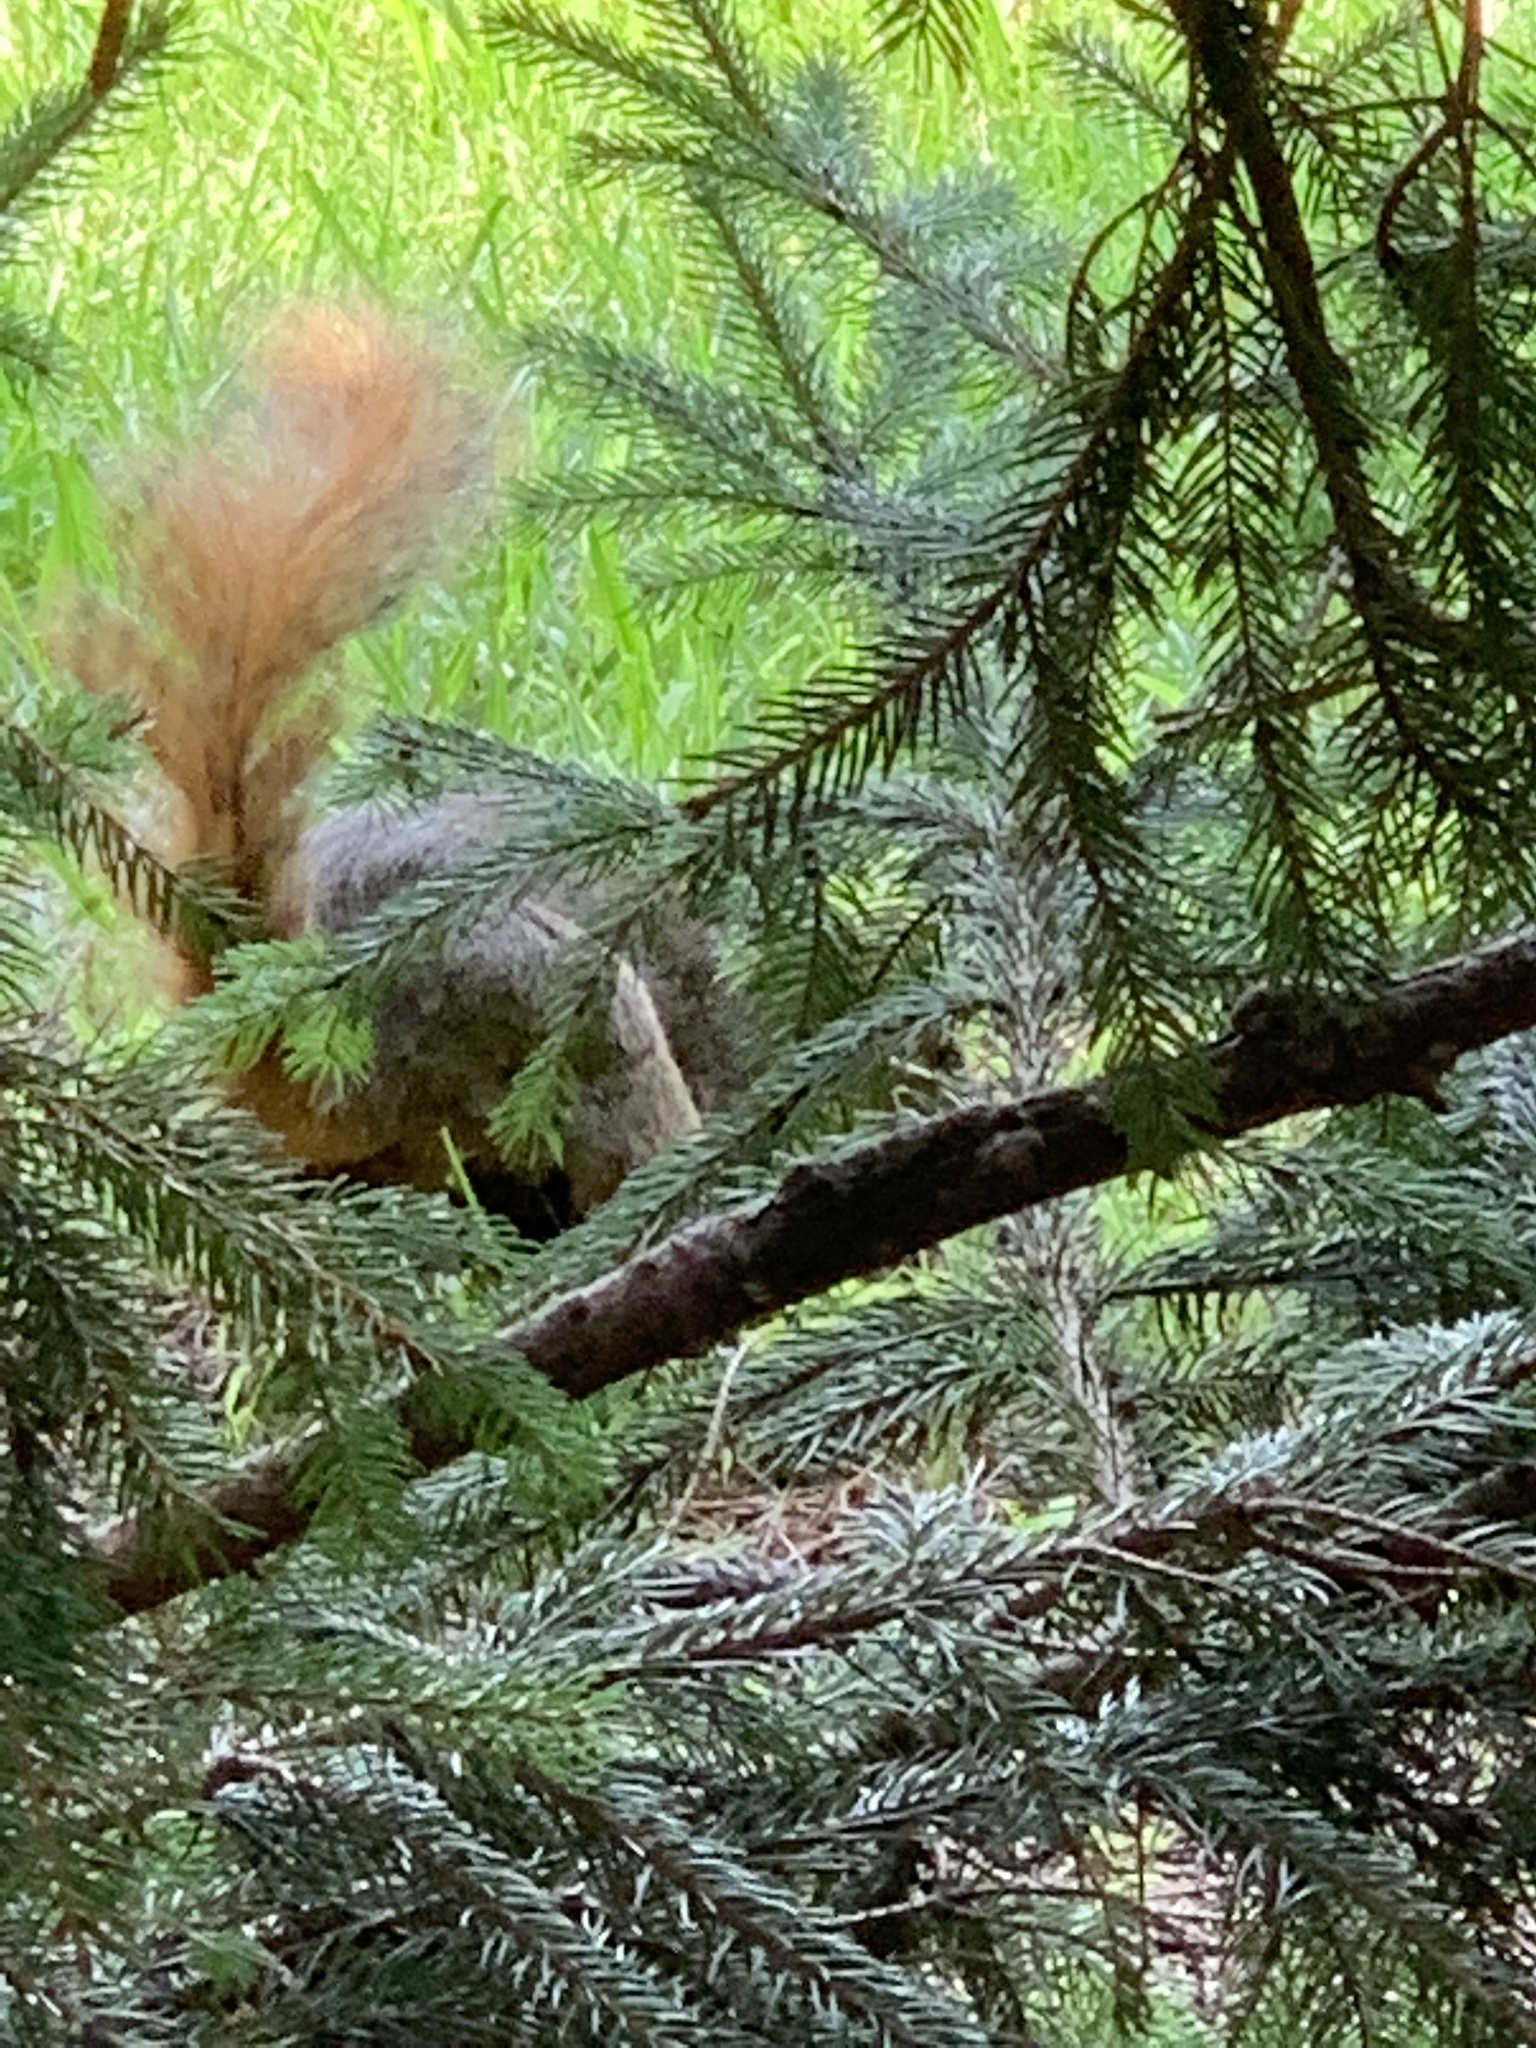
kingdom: Animalia
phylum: Chordata
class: Mammalia
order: Rodentia
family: Sciuridae
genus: Sciurus
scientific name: Sciurus niger
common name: Fox squirrel
